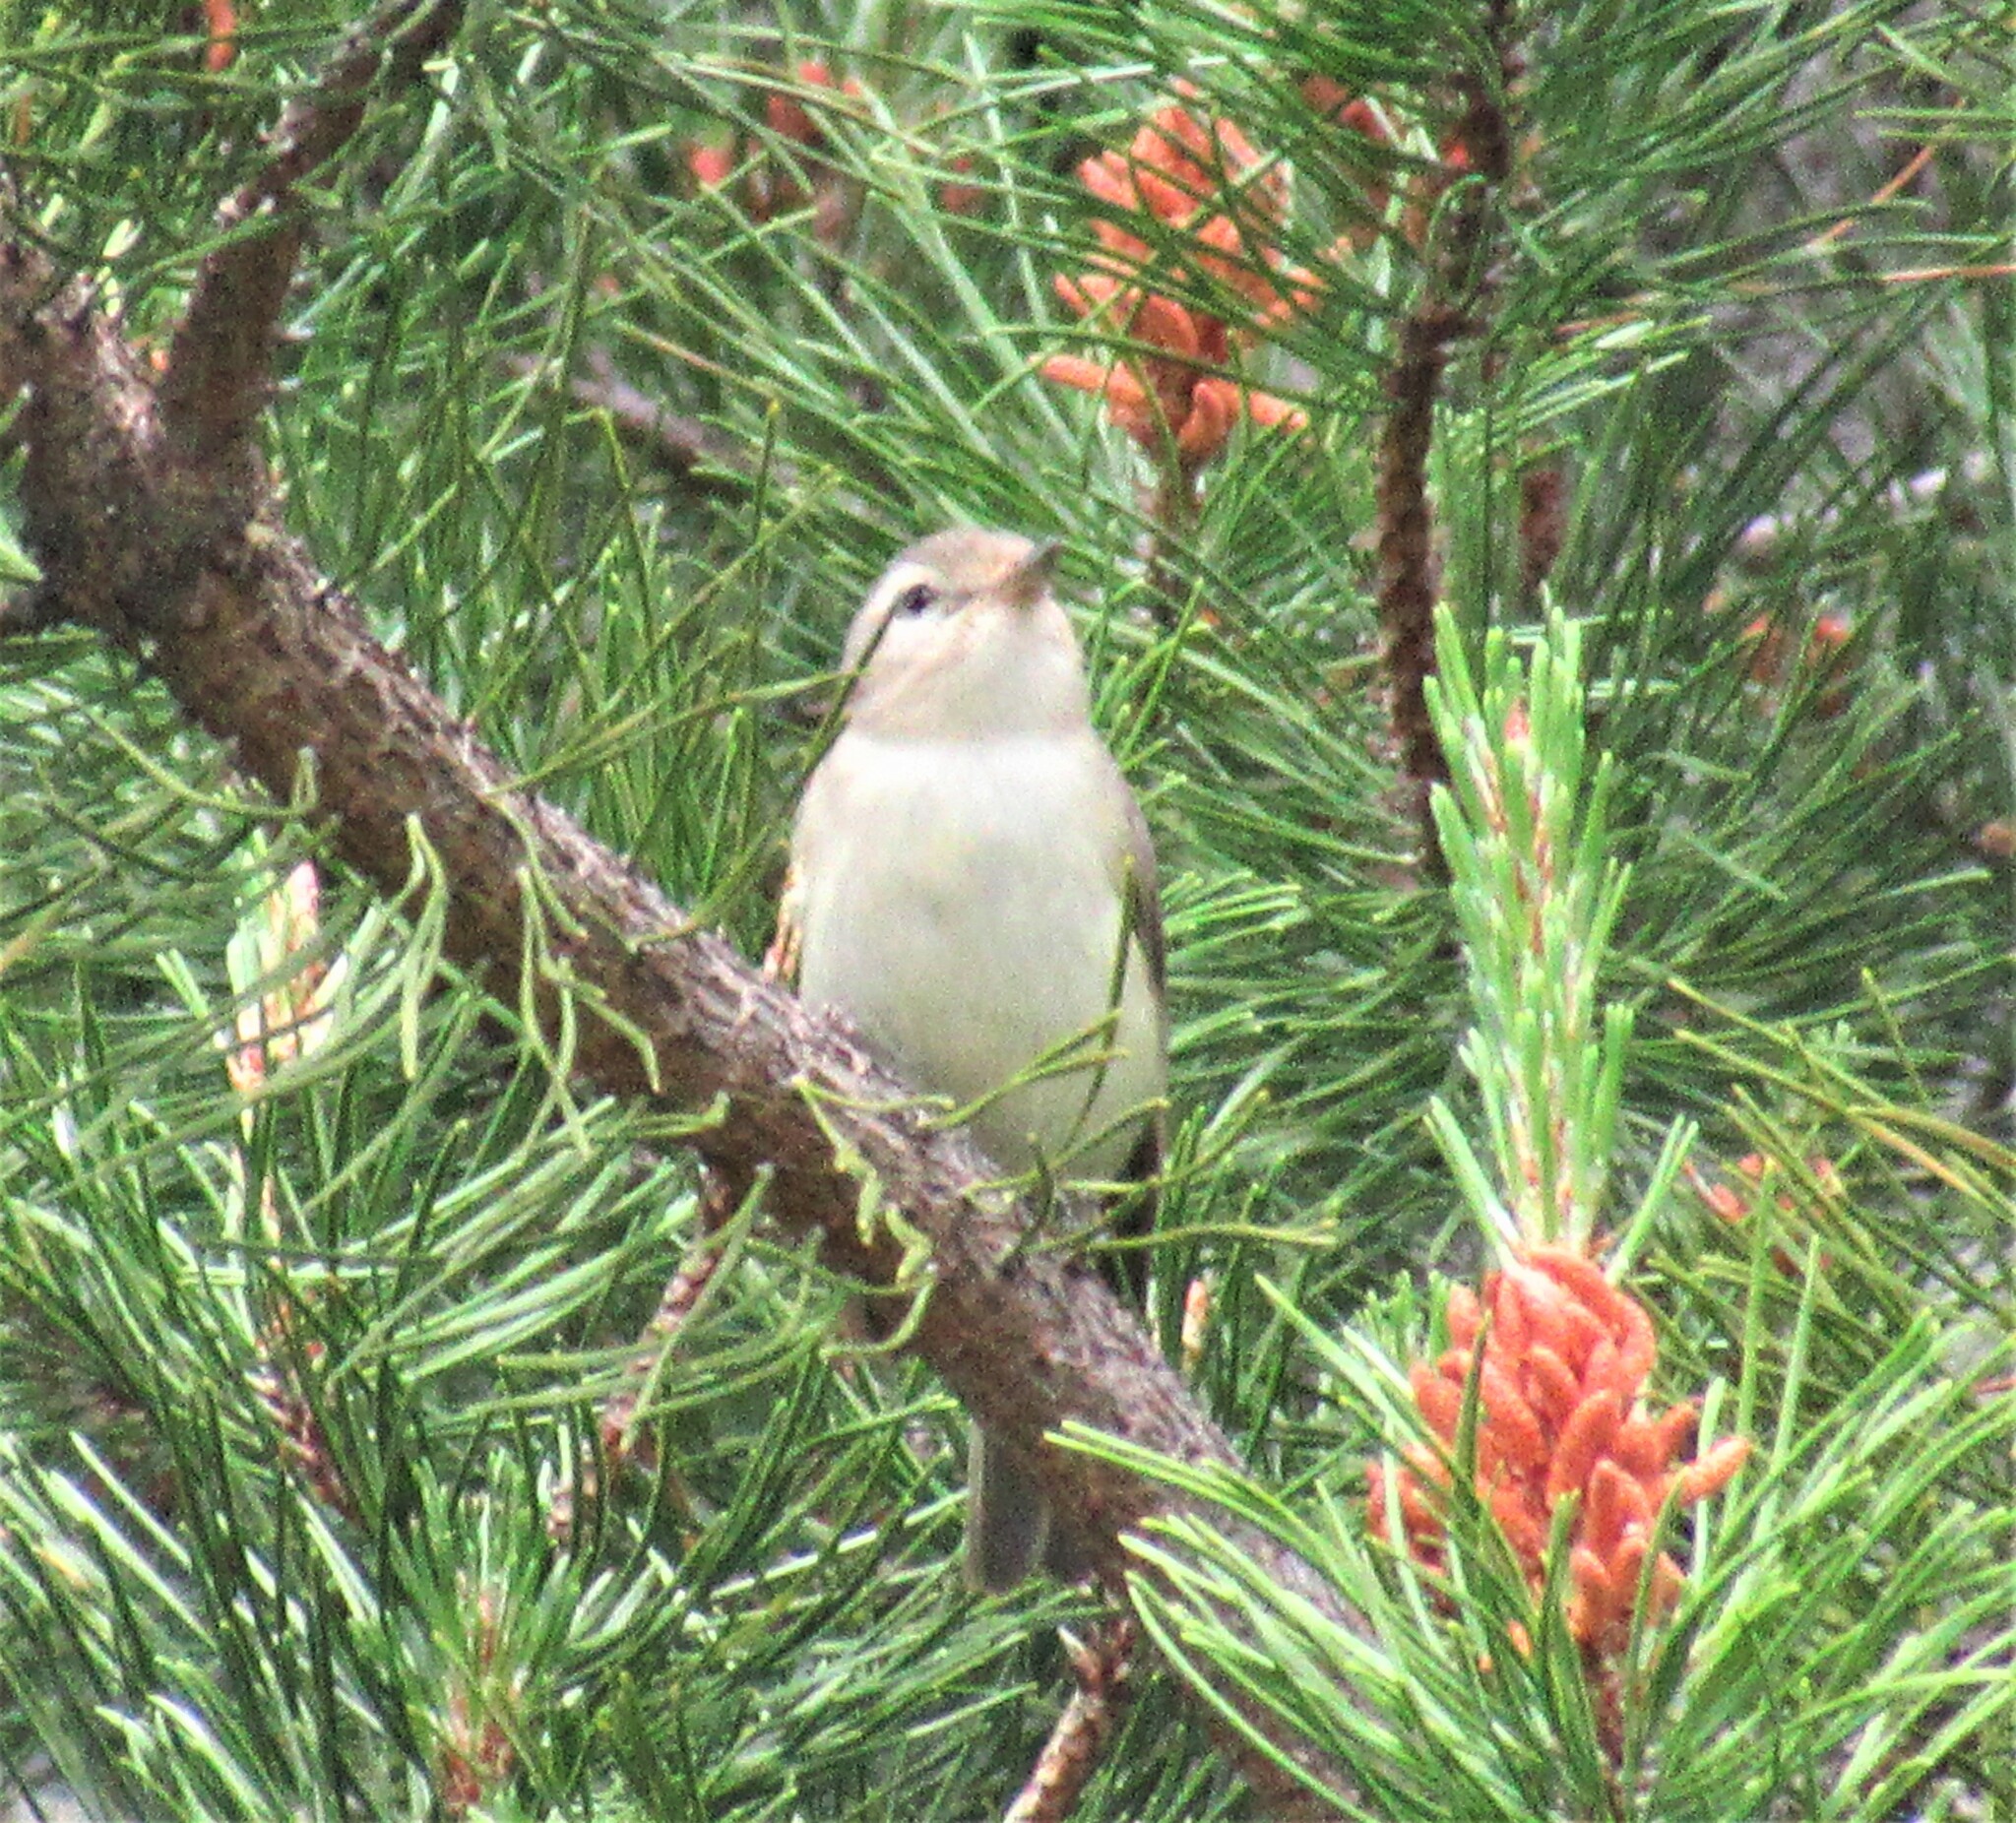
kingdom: Animalia
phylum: Chordata
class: Aves
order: Passeriformes
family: Vireonidae
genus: Vireo
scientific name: Vireo gilvus
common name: Warbling vireo
